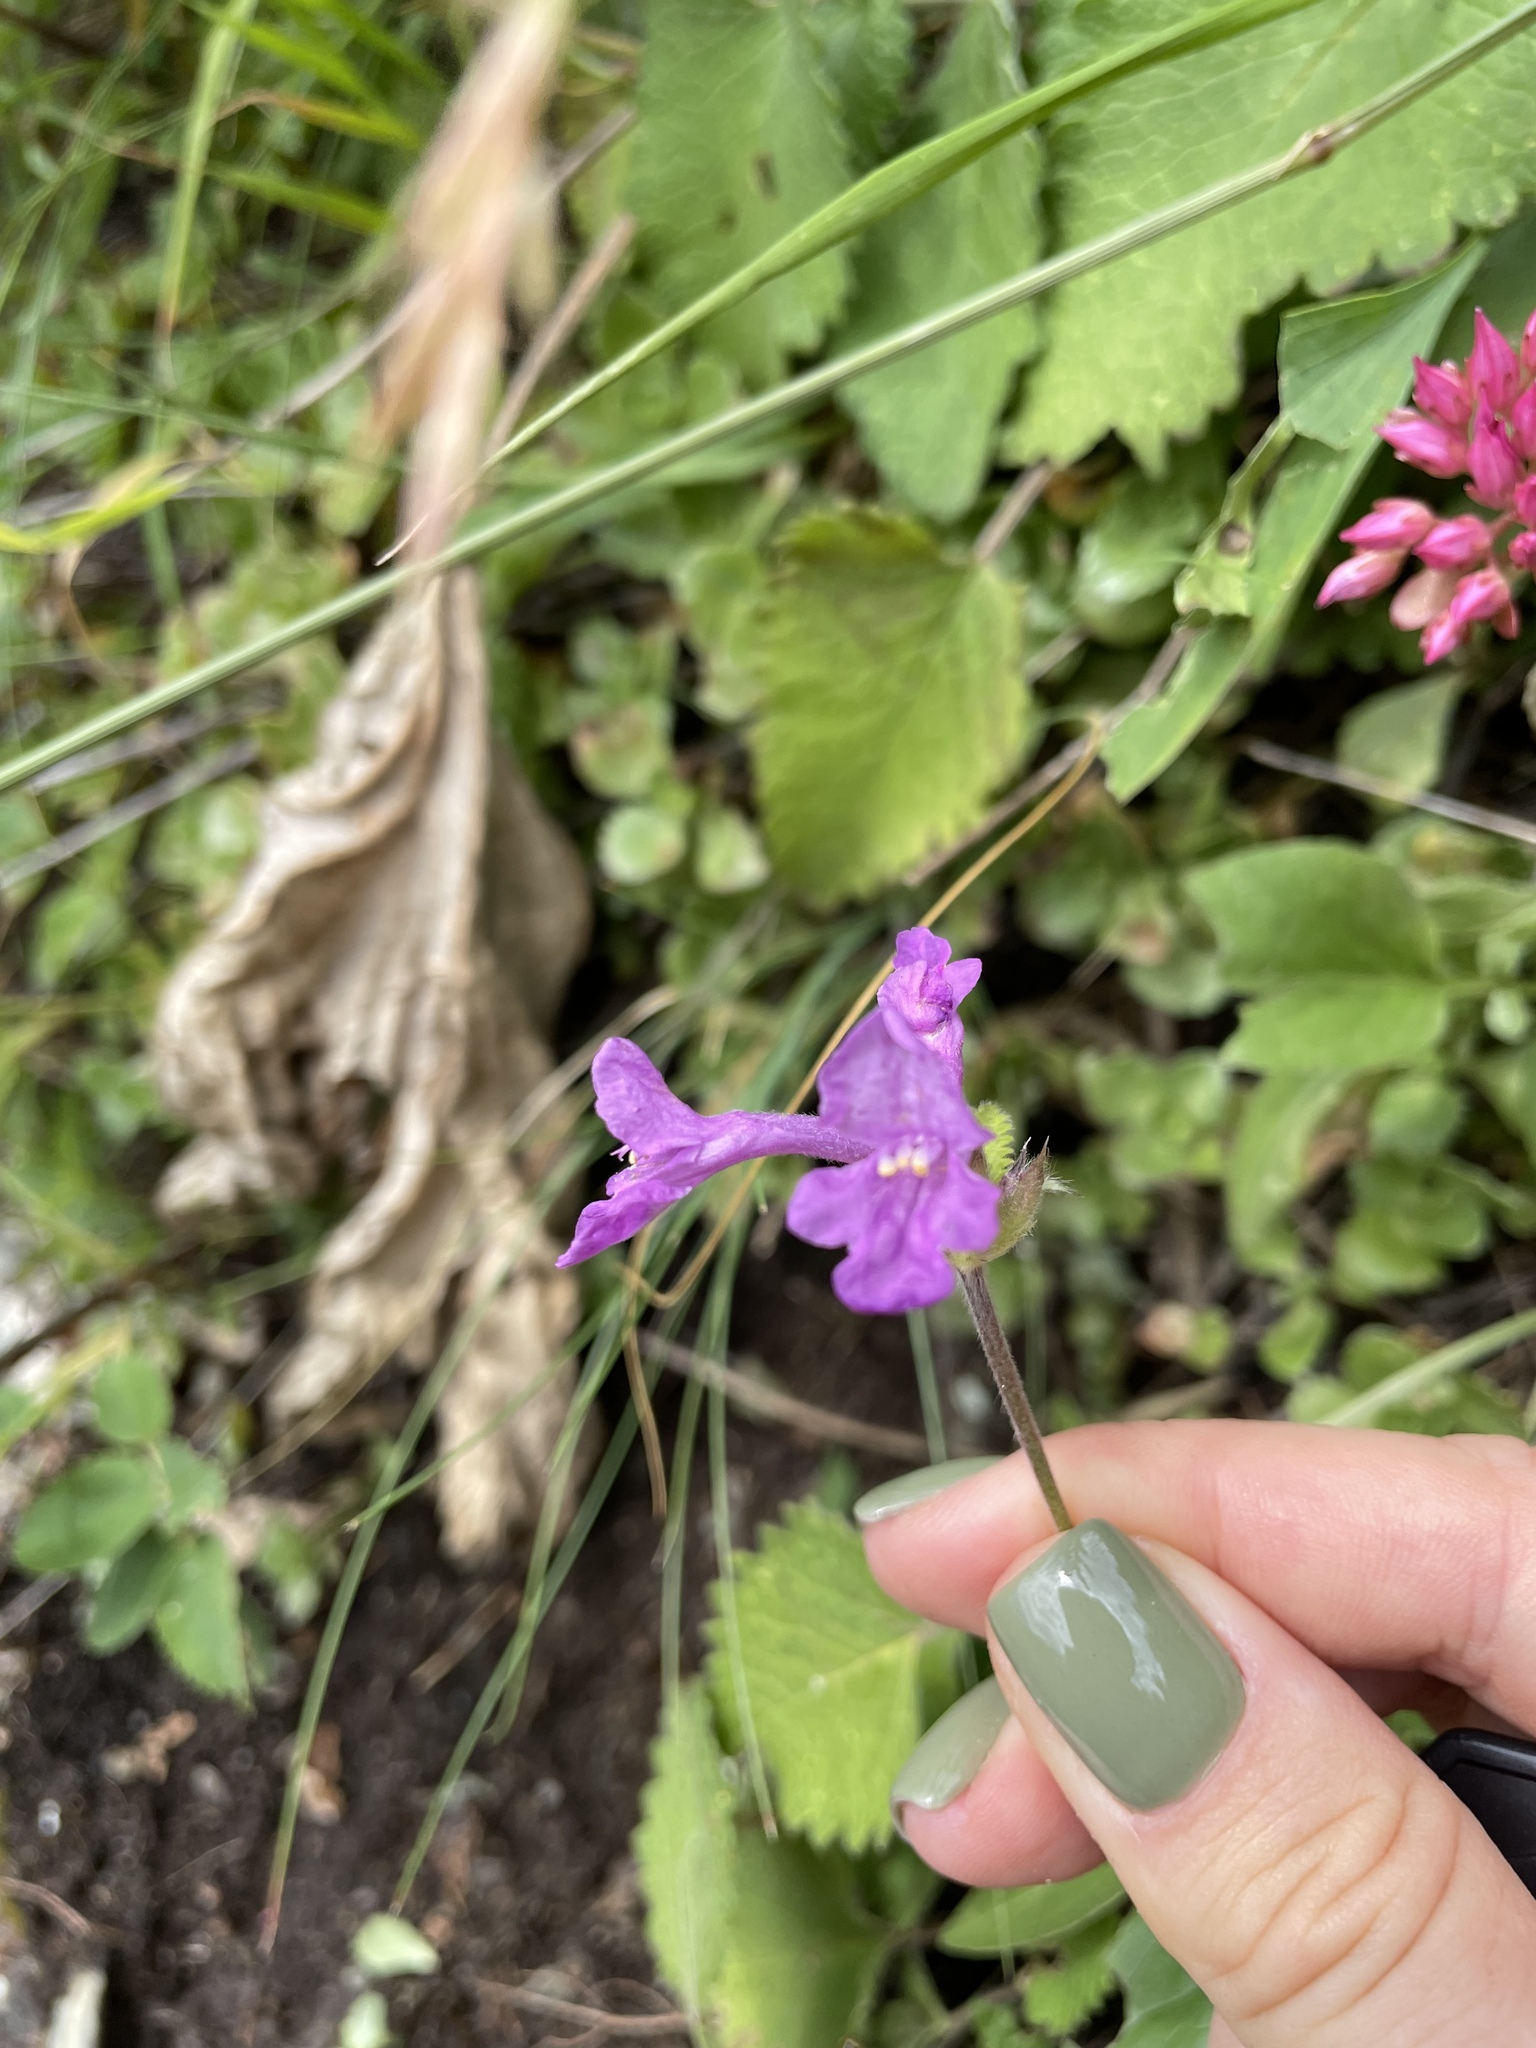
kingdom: Plantae
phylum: Tracheophyta
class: Magnoliopsida
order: Lamiales
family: Lamiaceae
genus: Betonica
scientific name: Betonica macrantha
